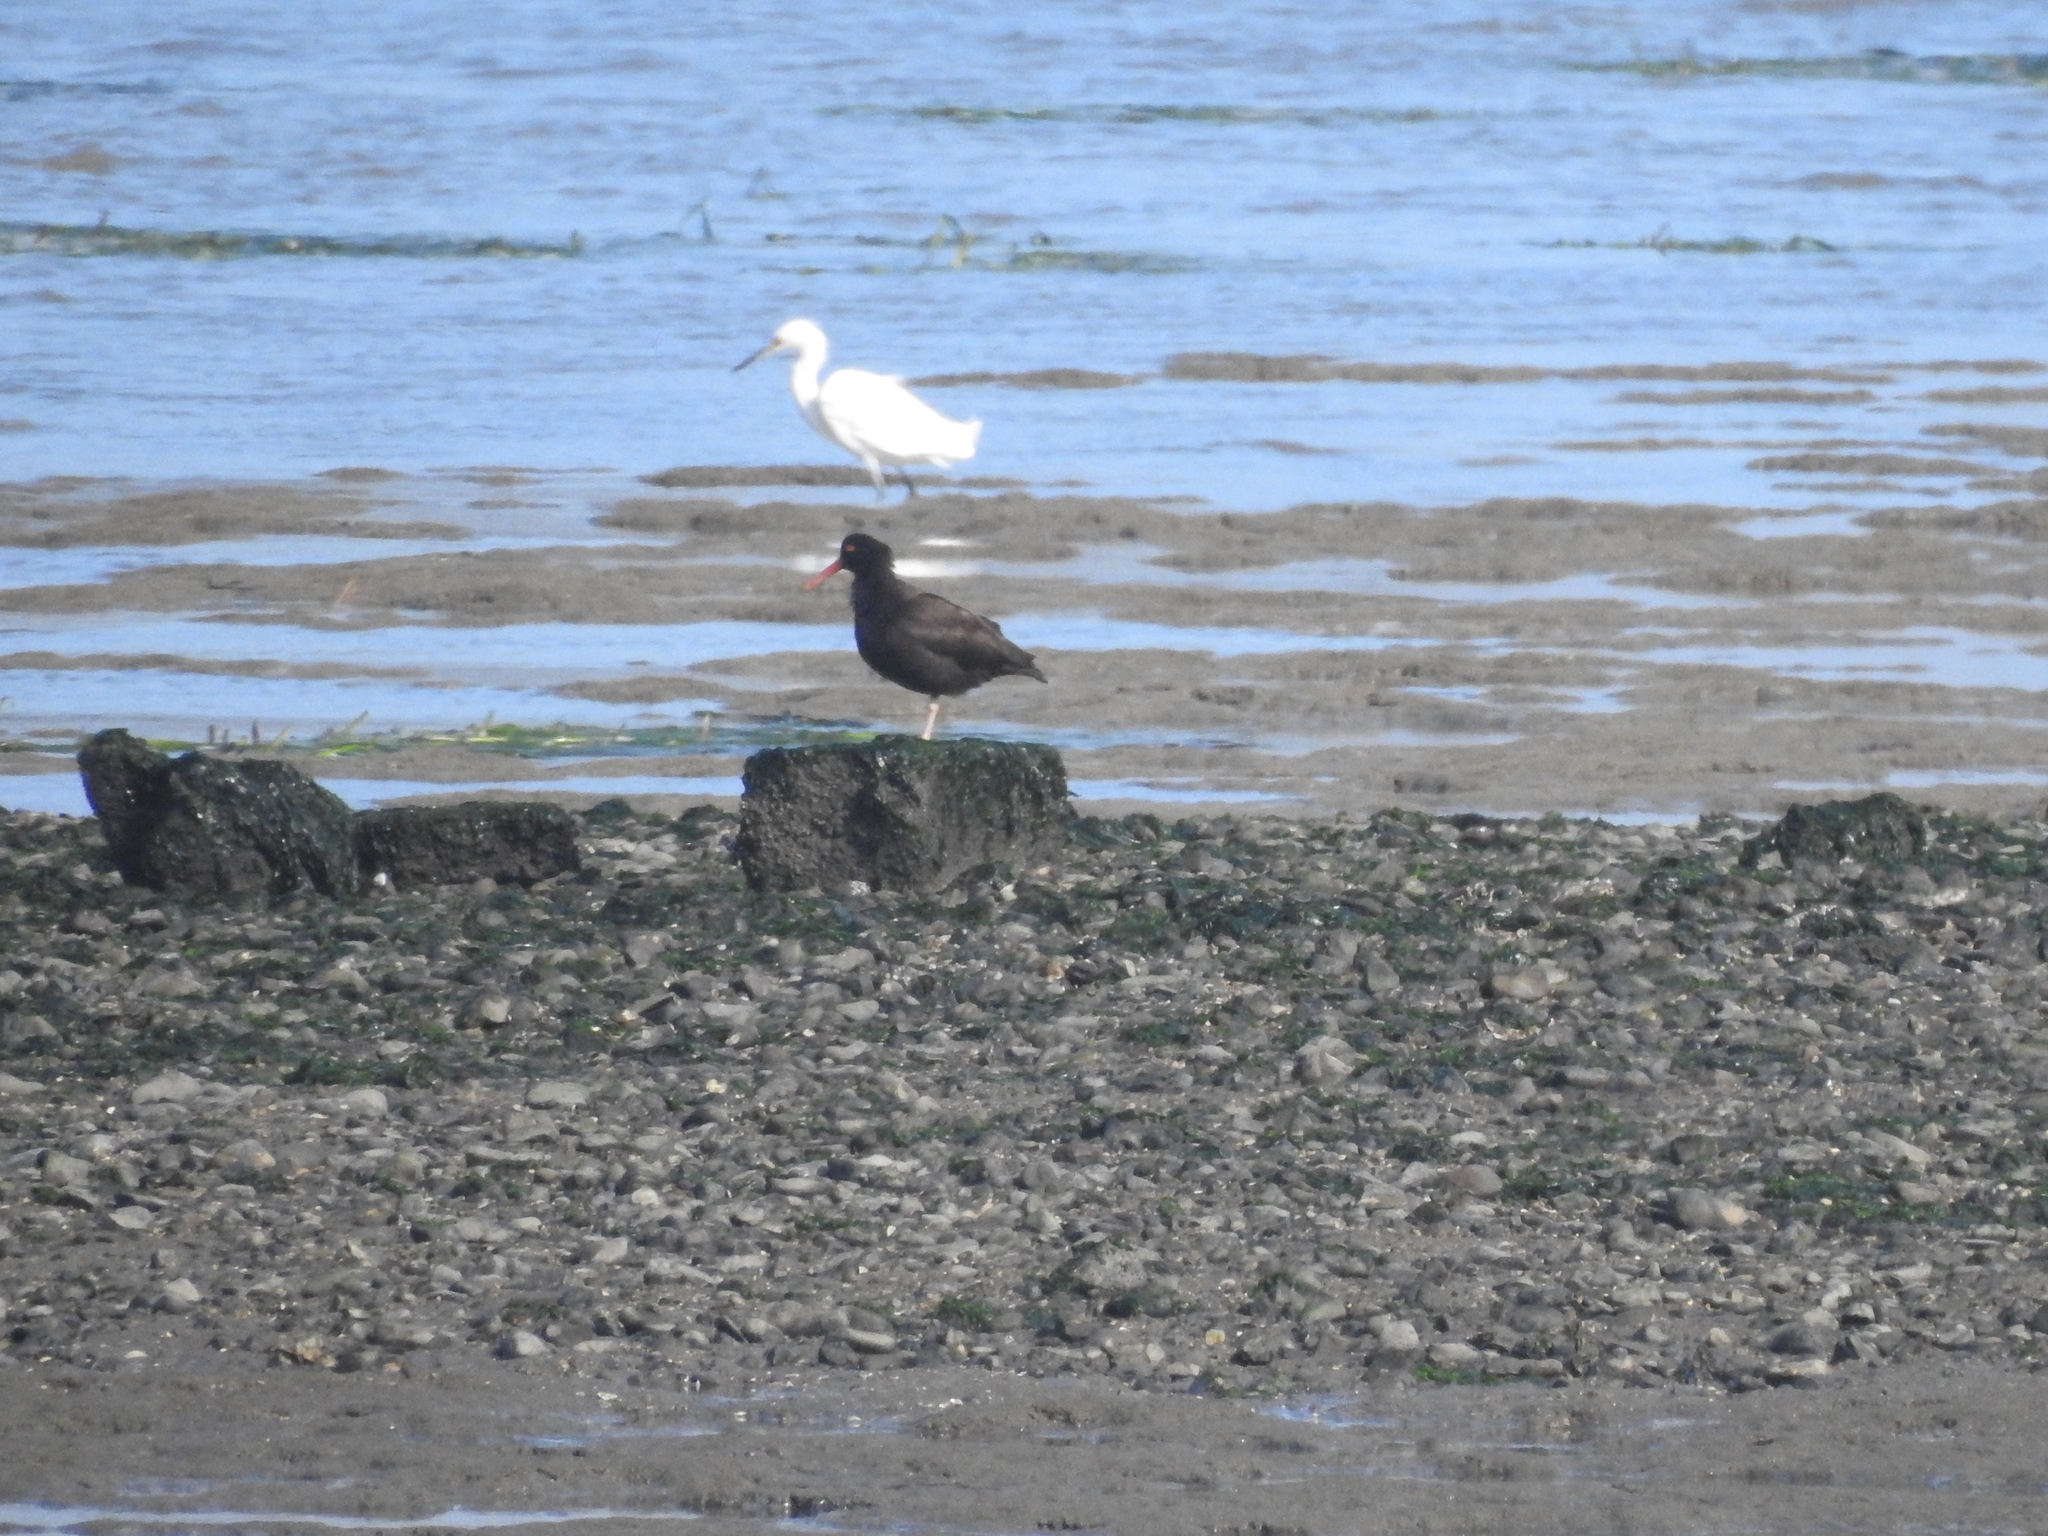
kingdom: Animalia
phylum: Chordata
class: Aves
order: Charadriiformes
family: Haematopodidae
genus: Haematopus
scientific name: Haematopus bachmani
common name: Black oystercatcher
